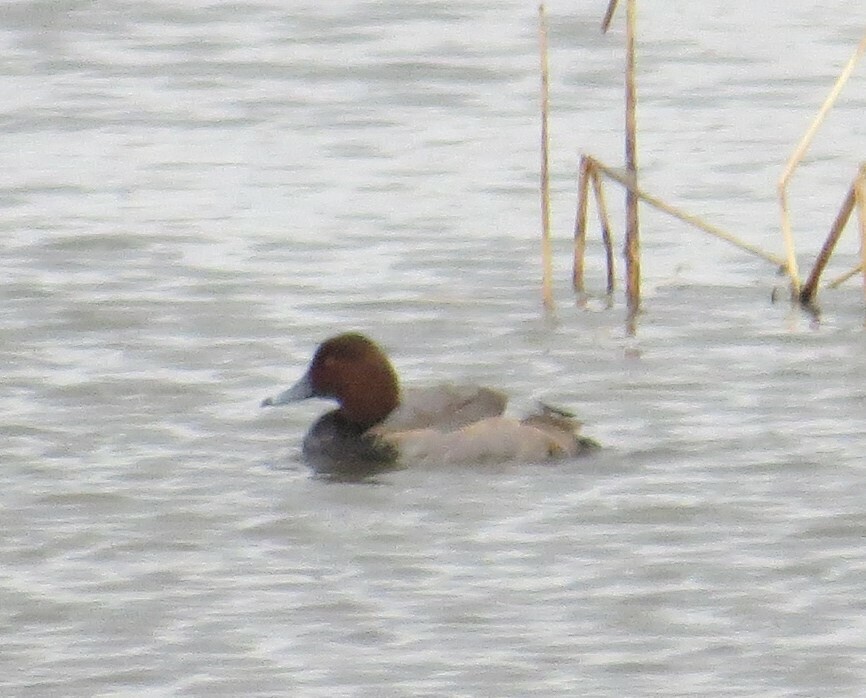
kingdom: Animalia
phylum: Chordata
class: Aves
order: Anseriformes
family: Anatidae
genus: Aythya
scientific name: Aythya americana
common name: Redhead
